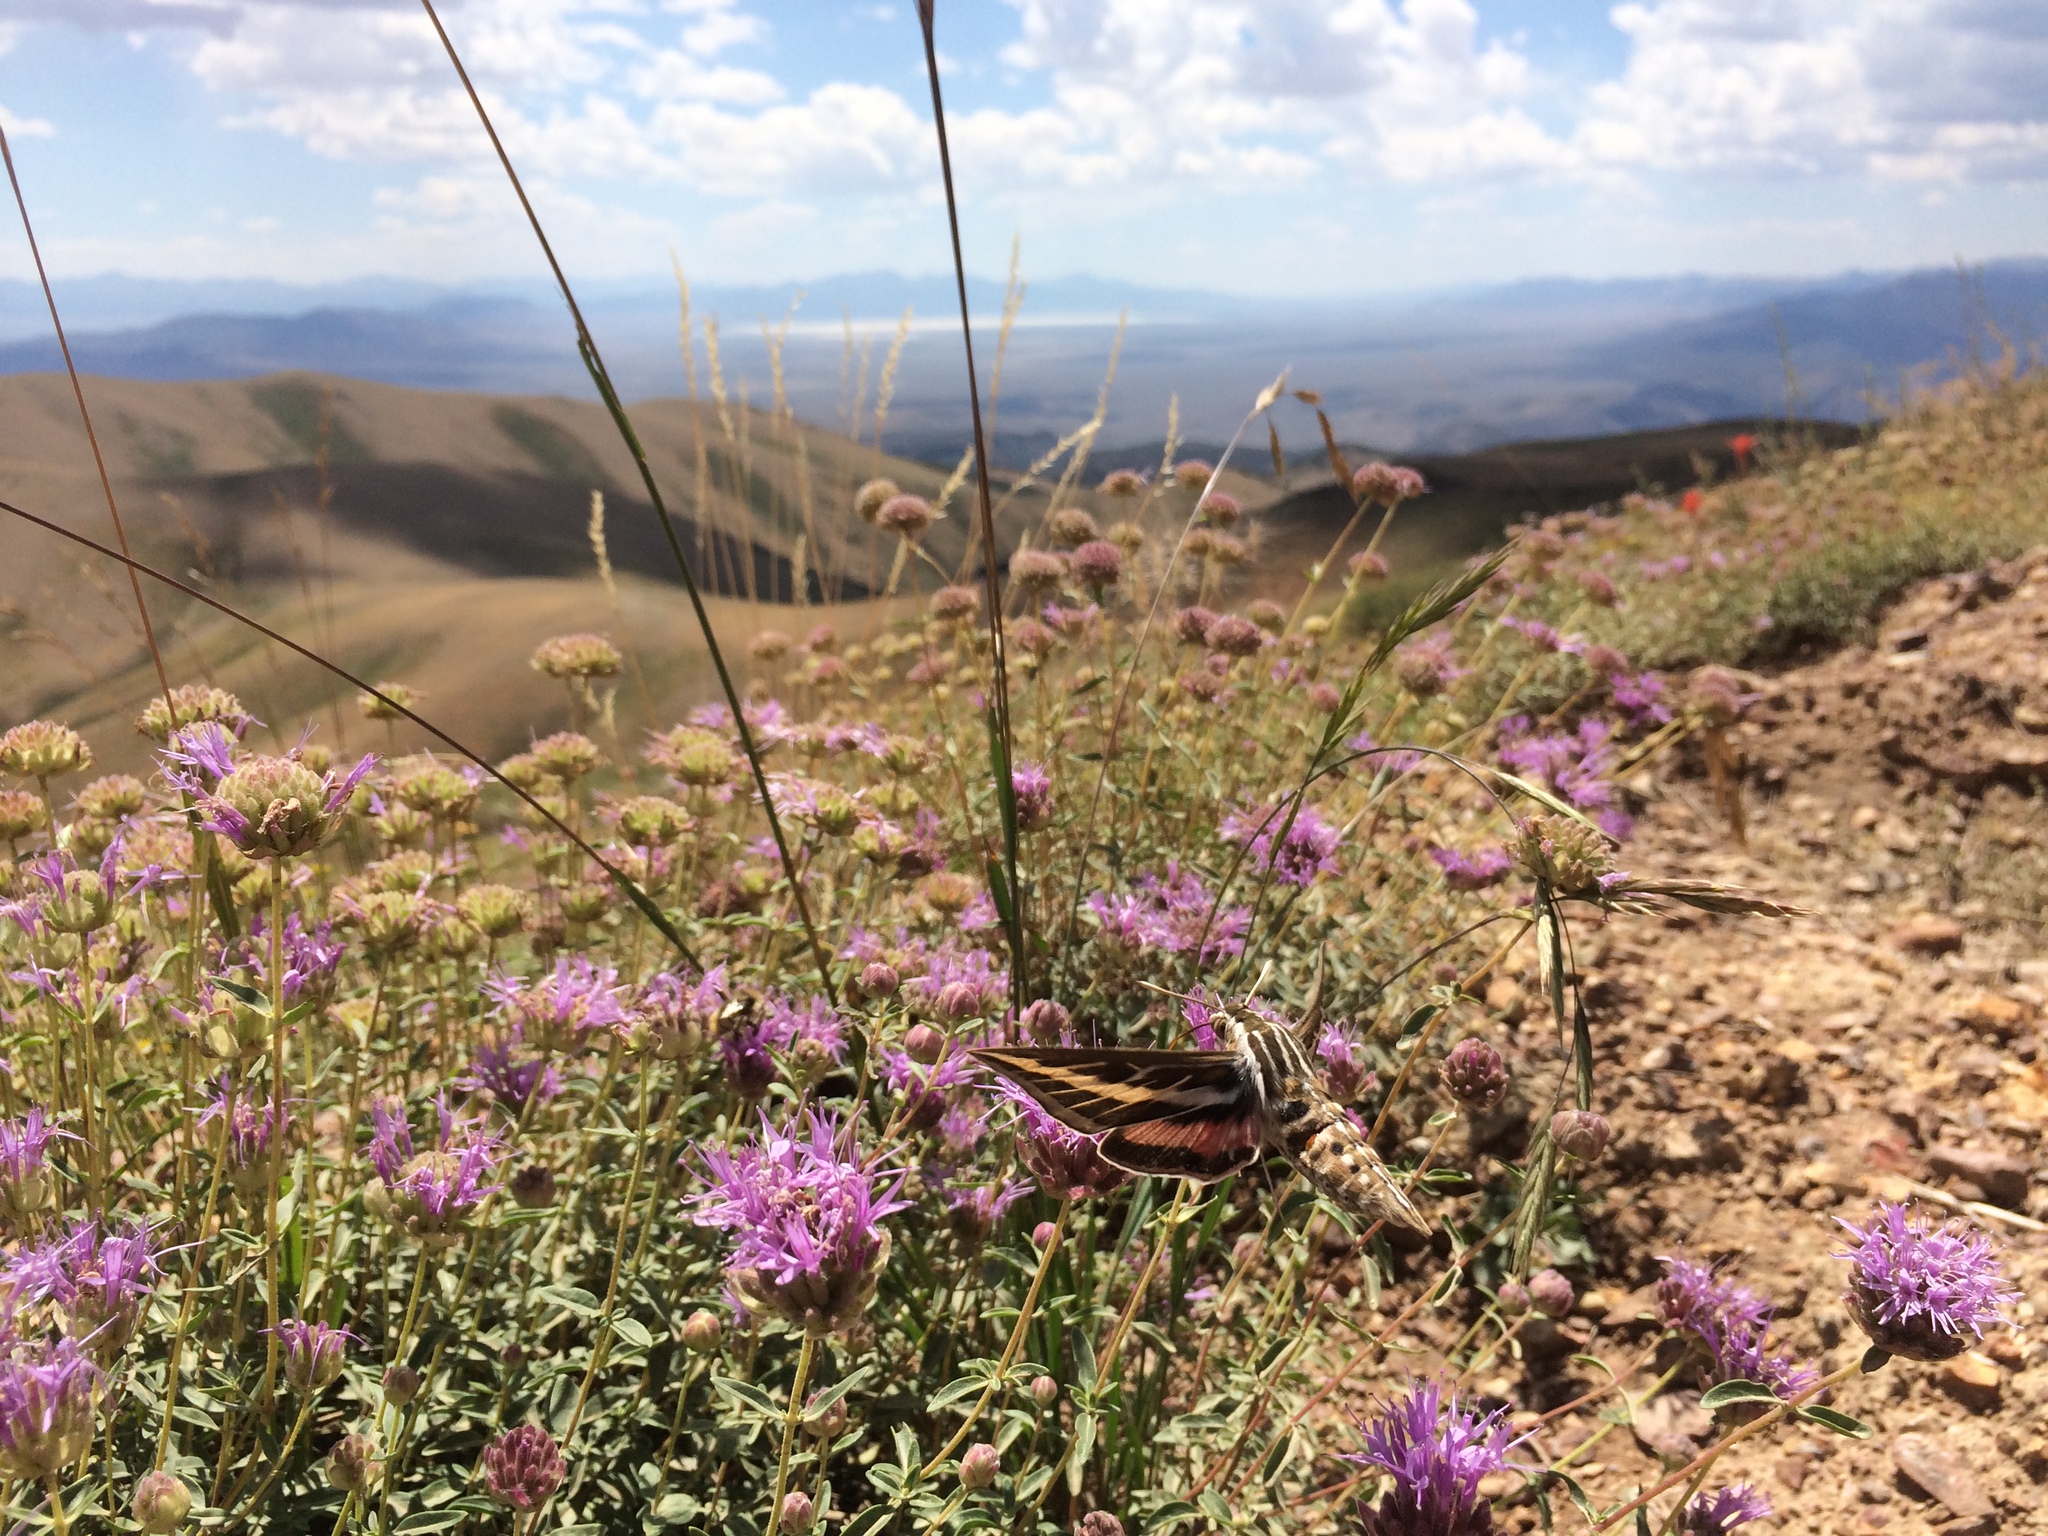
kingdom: Animalia
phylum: Arthropoda
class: Insecta
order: Lepidoptera
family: Sphingidae
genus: Hyles
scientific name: Hyles lineata
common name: White-lined sphinx
